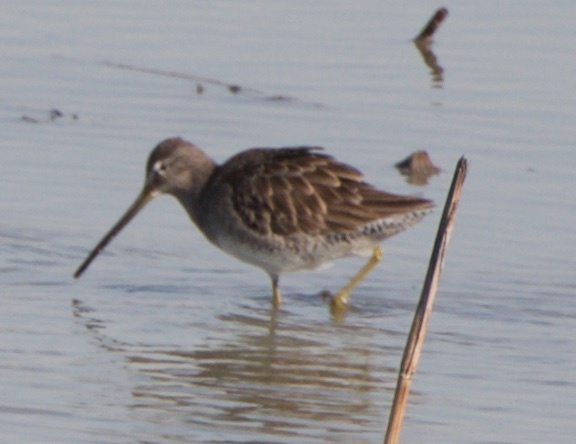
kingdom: Animalia
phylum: Chordata
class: Aves
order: Charadriiformes
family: Scolopacidae
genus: Limnodromus
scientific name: Limnodromus scolopaceus
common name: Long-billed dowitcher
